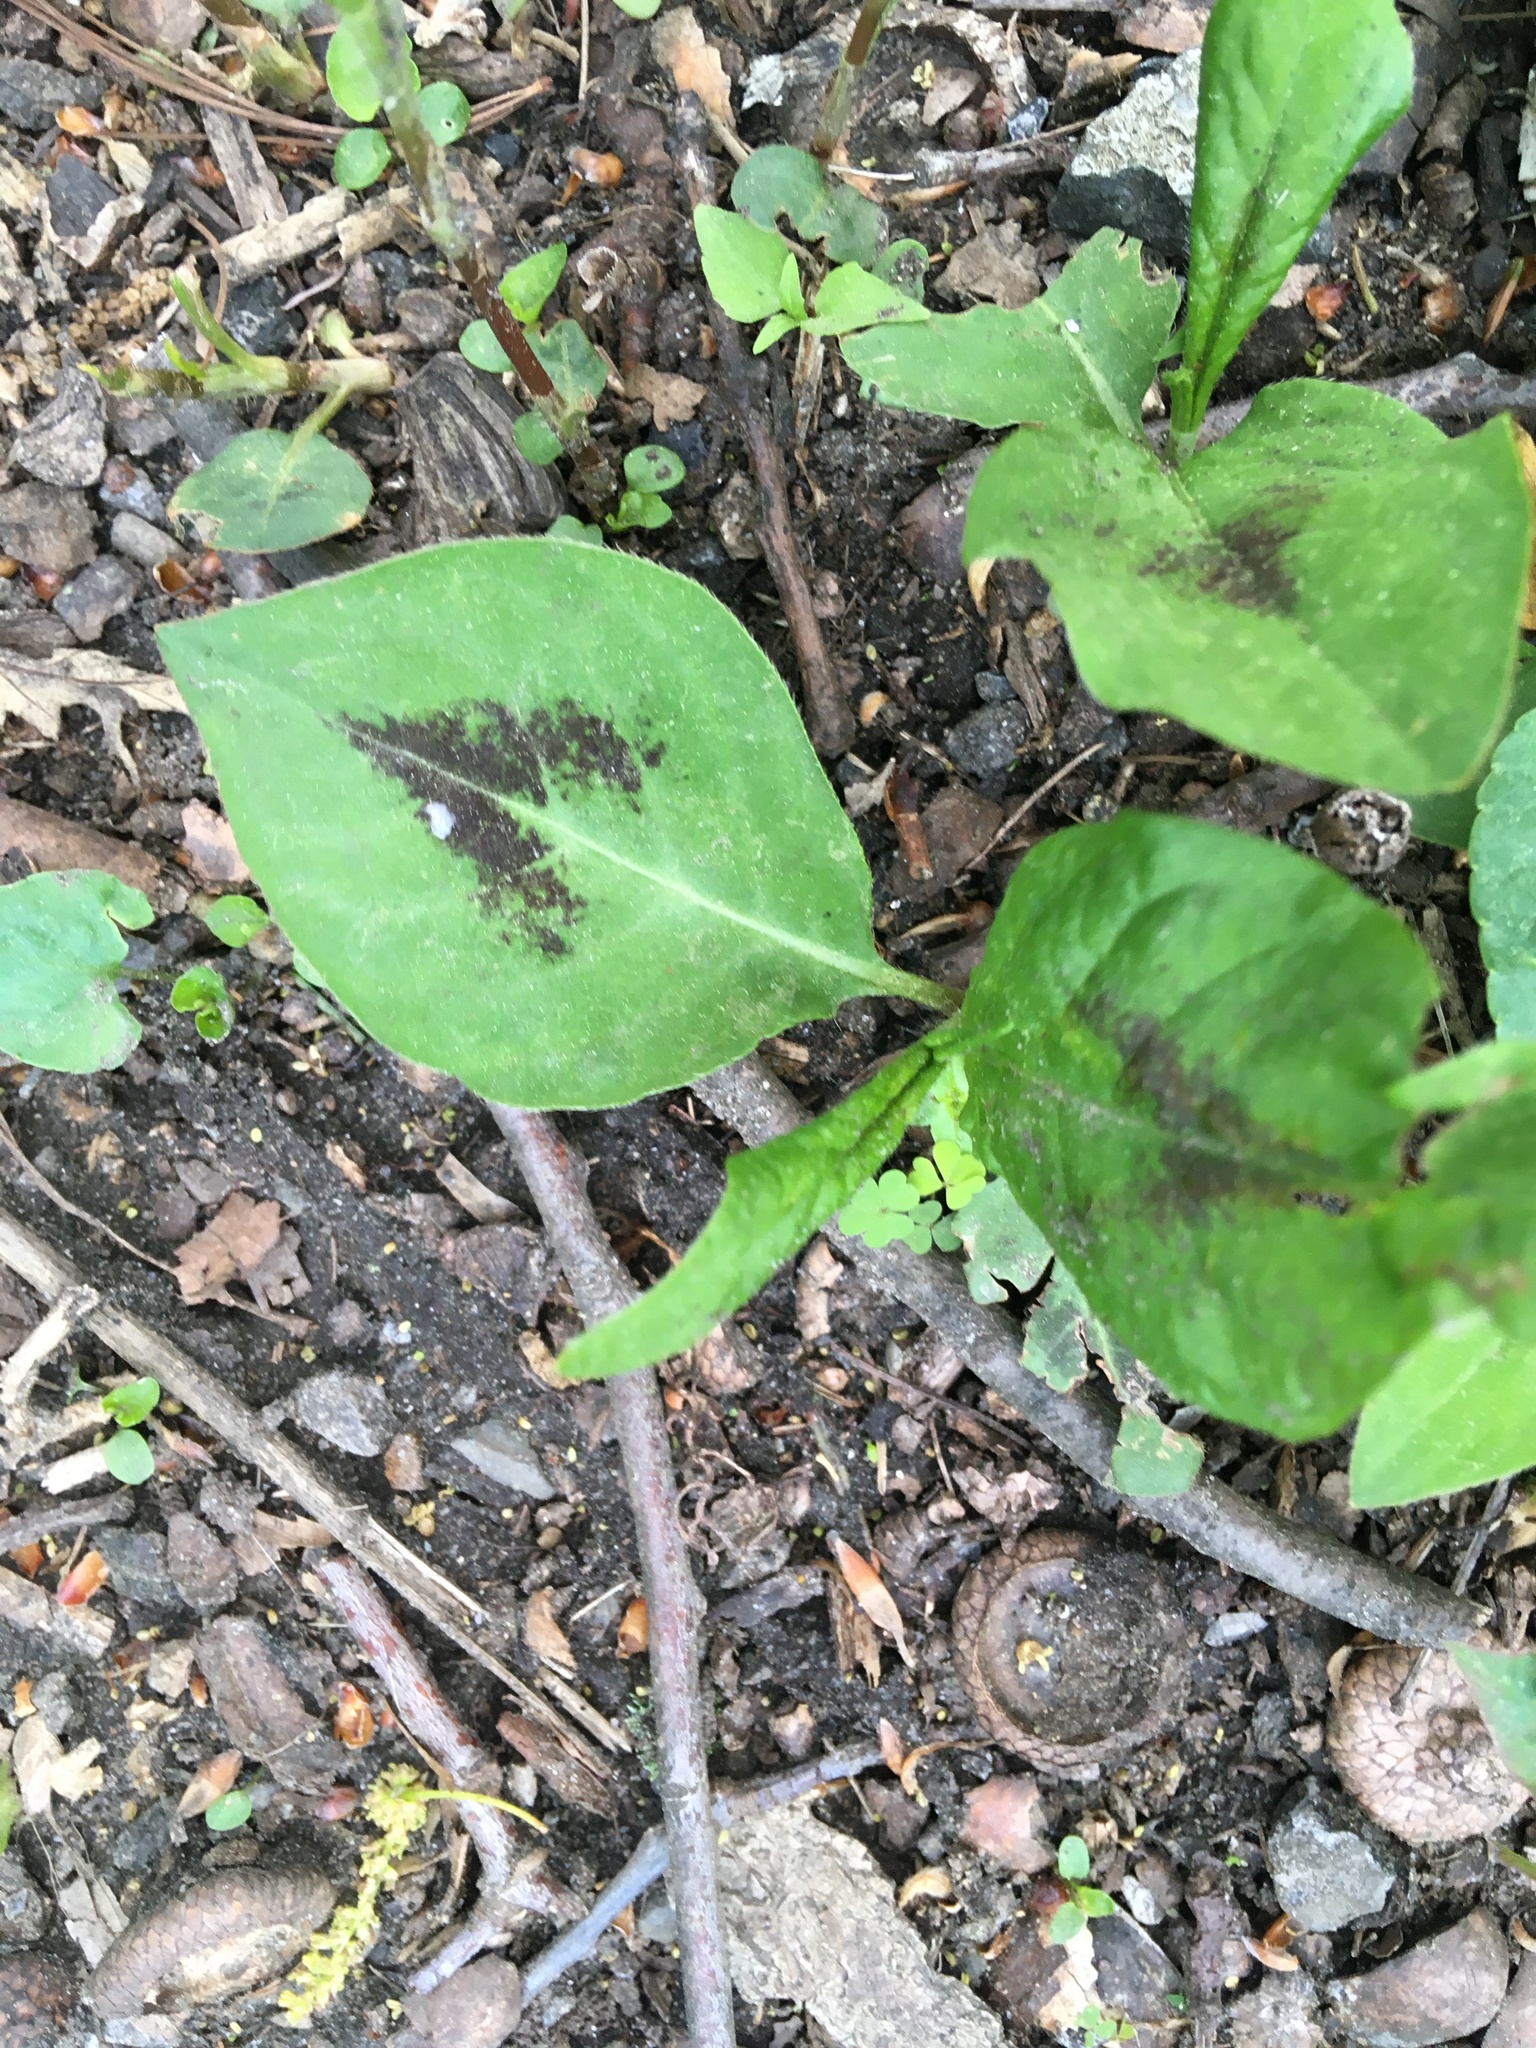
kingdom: Plantae
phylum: Tracheophyta
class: Magnoliopsida
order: Caryophyllales
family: Polygonaceae
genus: Persicaria
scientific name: Persicaria virginiana
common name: Jumpseed
